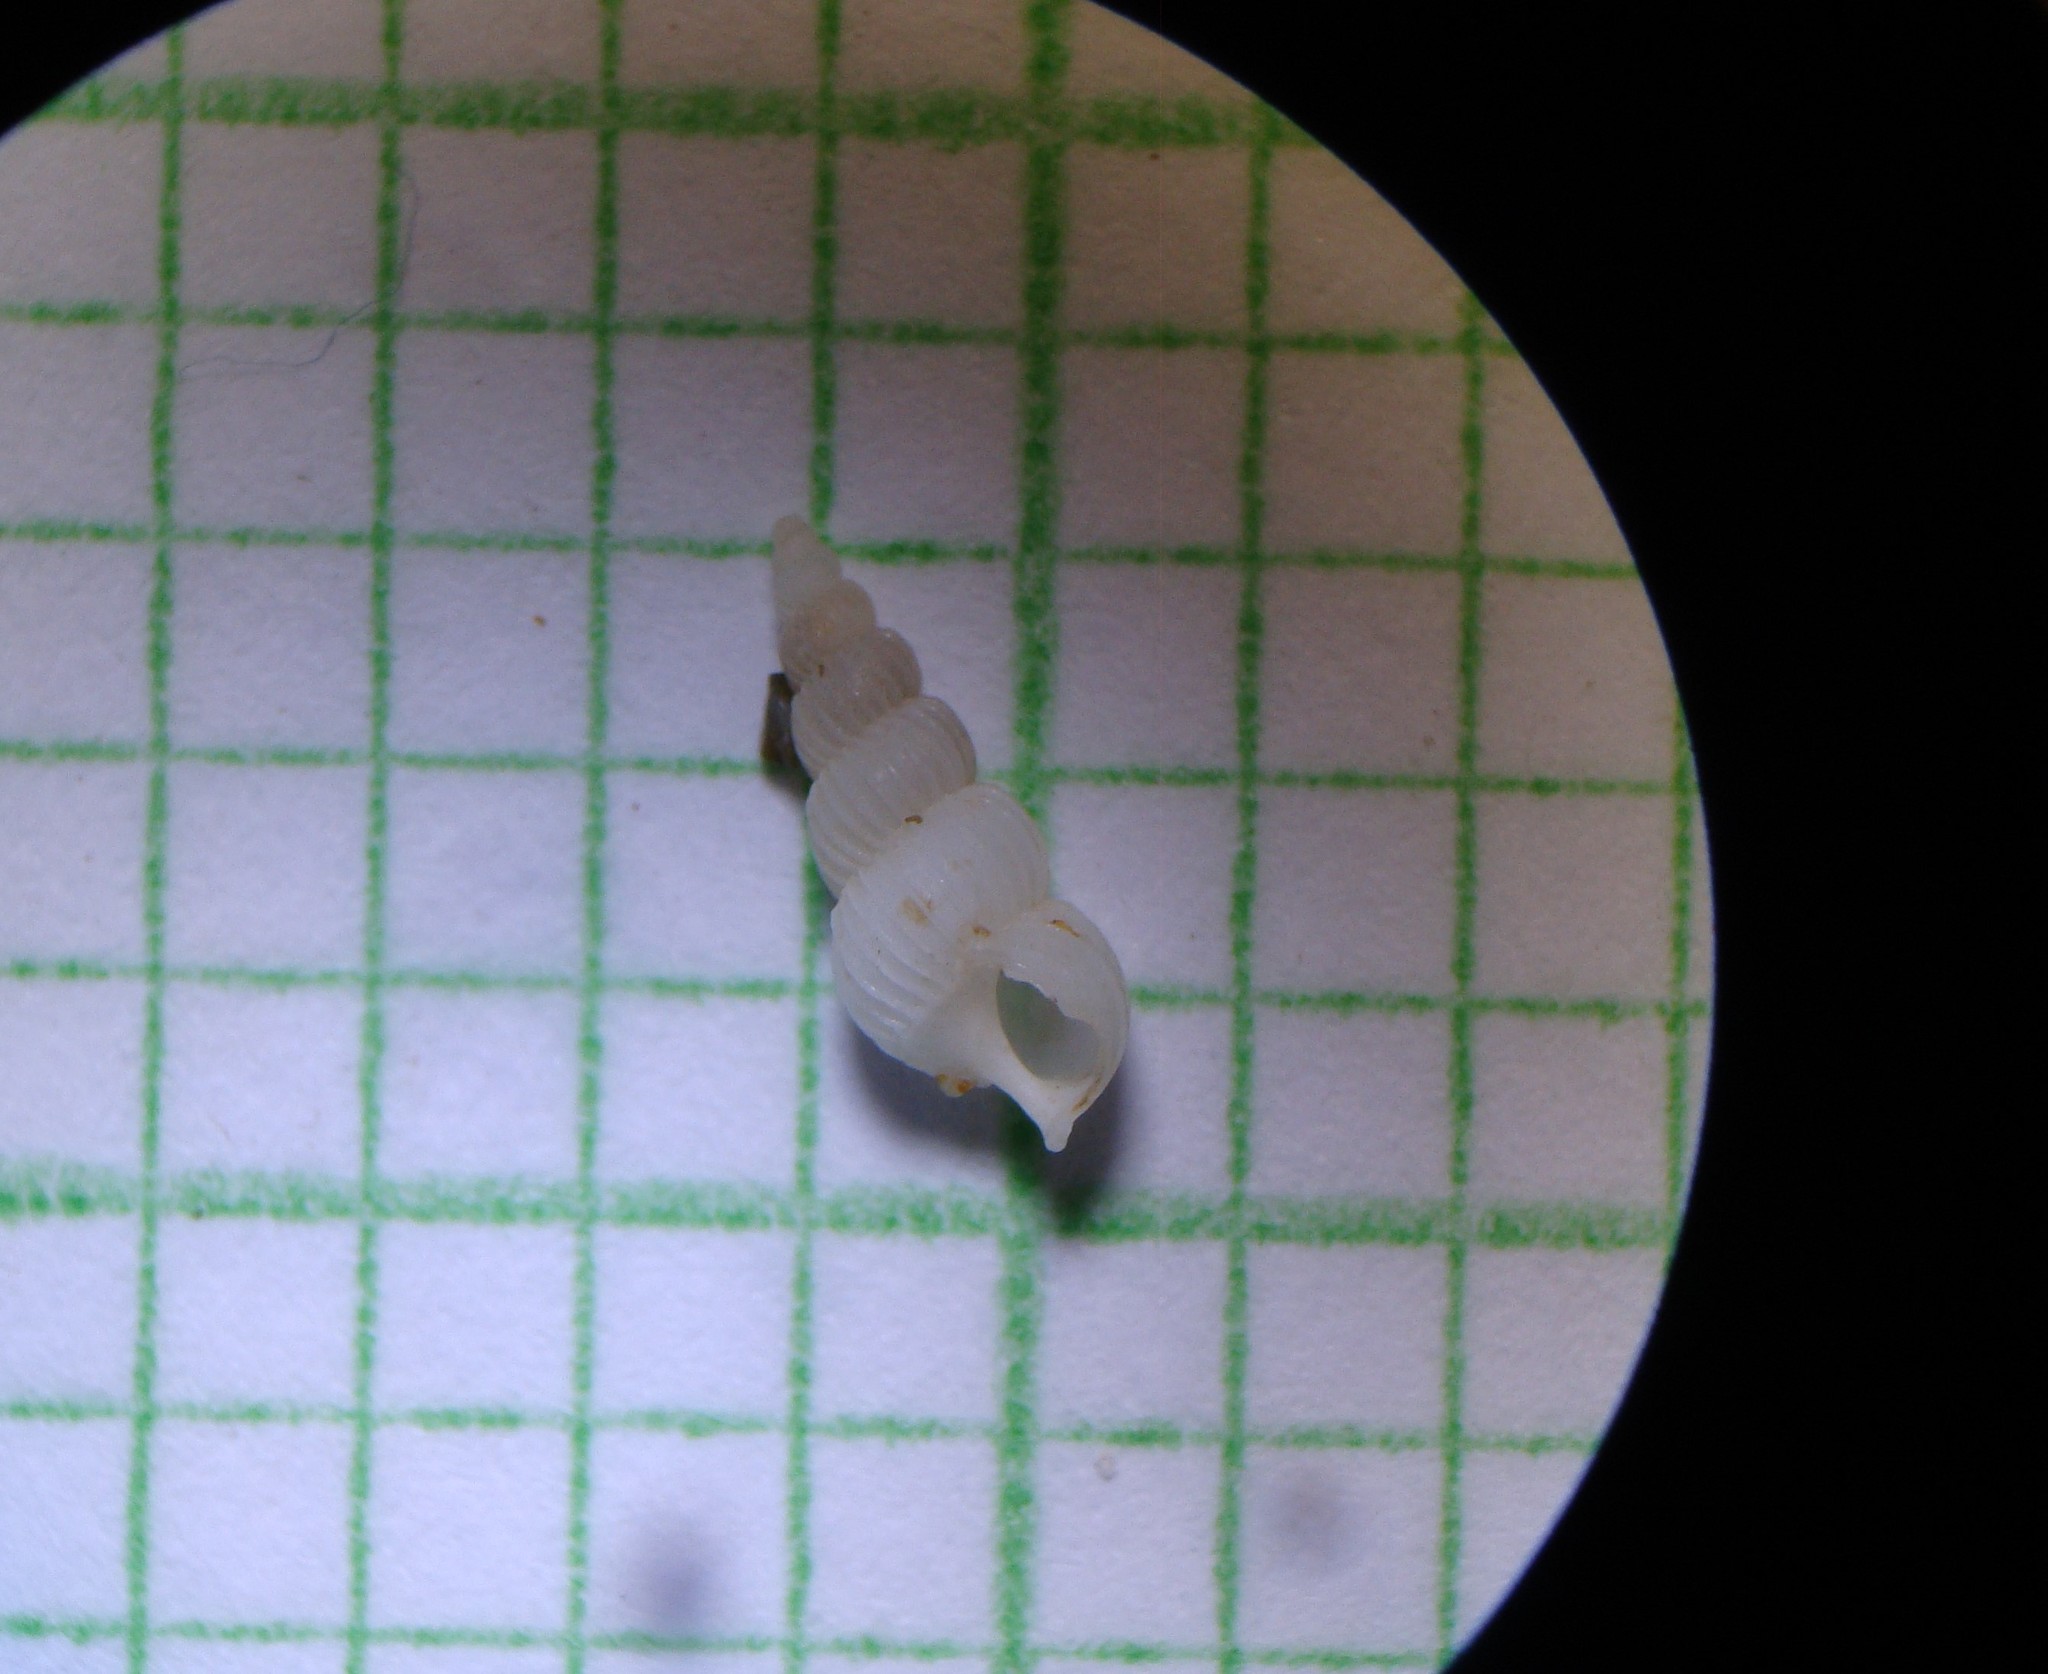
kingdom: Animalia
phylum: Mollusca
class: Gastropoda
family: Epitoniidae
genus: Epitonium
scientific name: Epitonium jukesianum
